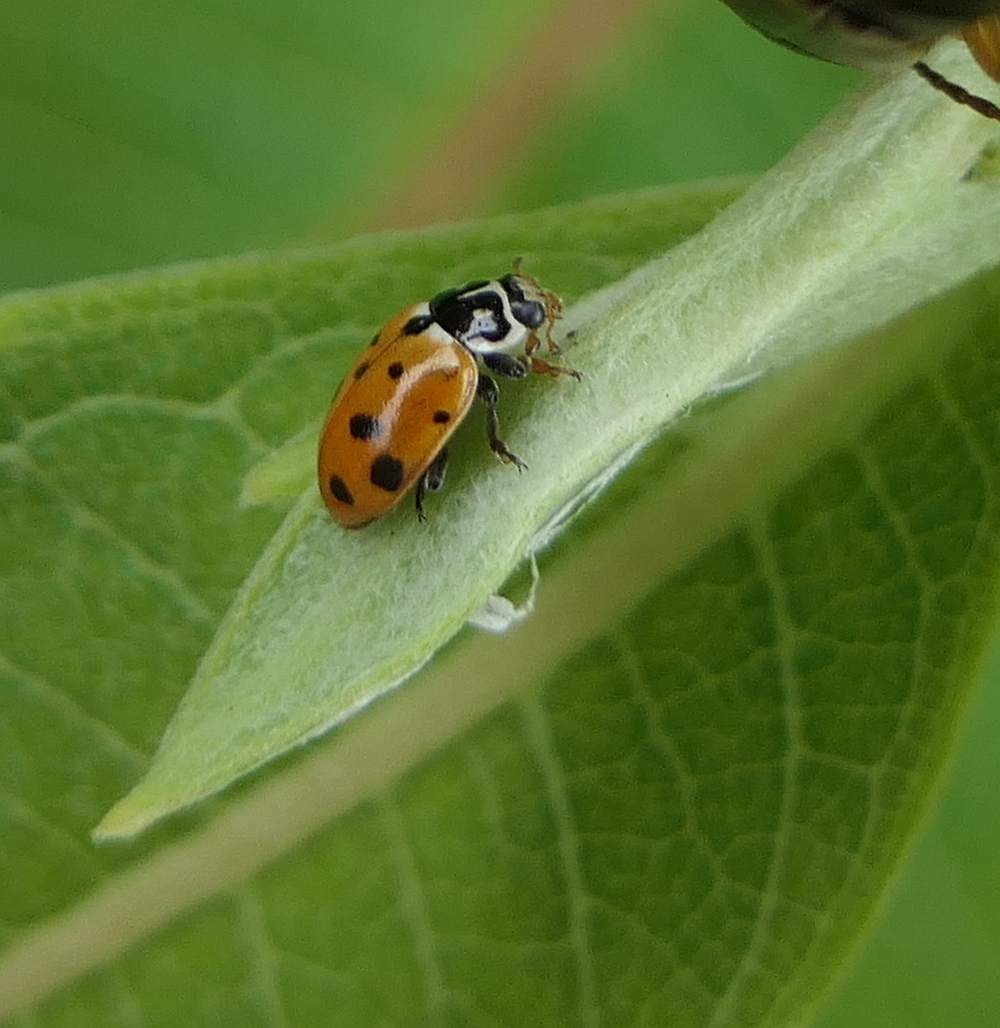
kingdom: Animalia
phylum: Arthropoda
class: Insecta
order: Coleoptera
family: Coccinellidae
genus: Hippodamia
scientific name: Hippodamia variegata
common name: Ladybird beetle
